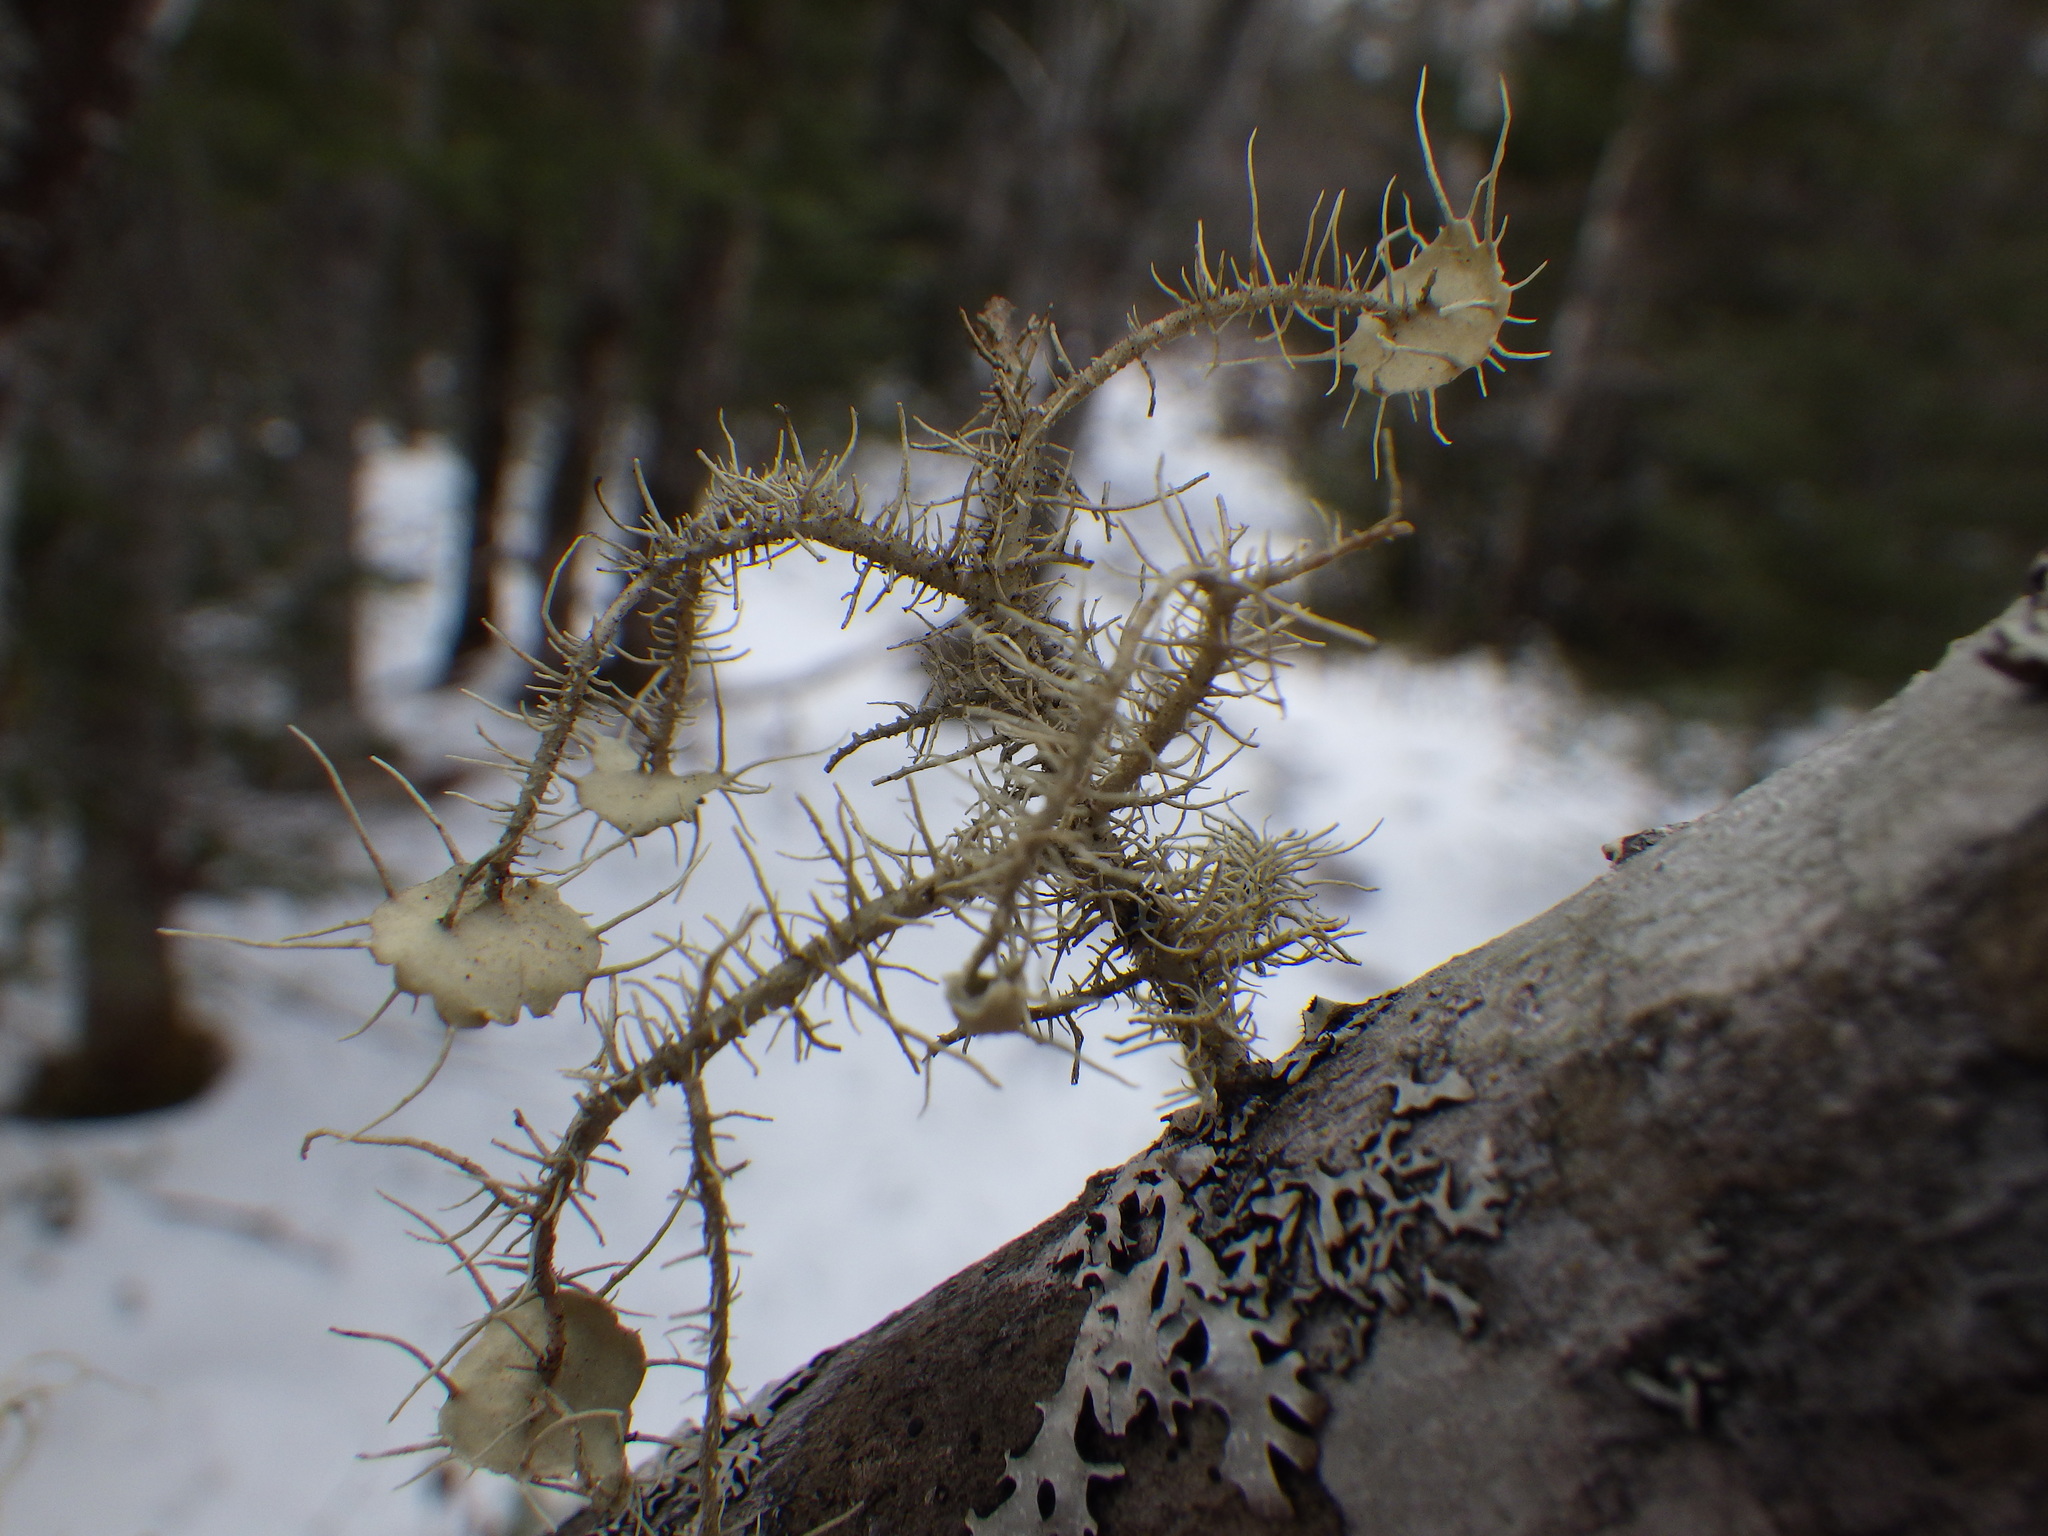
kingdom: Fungi
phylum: Ascomycota
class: Lecanoromycetes
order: Lecanorales
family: Parmeliaceae
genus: Usnea
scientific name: Usnea strigosa
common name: Bushy beard lichen
